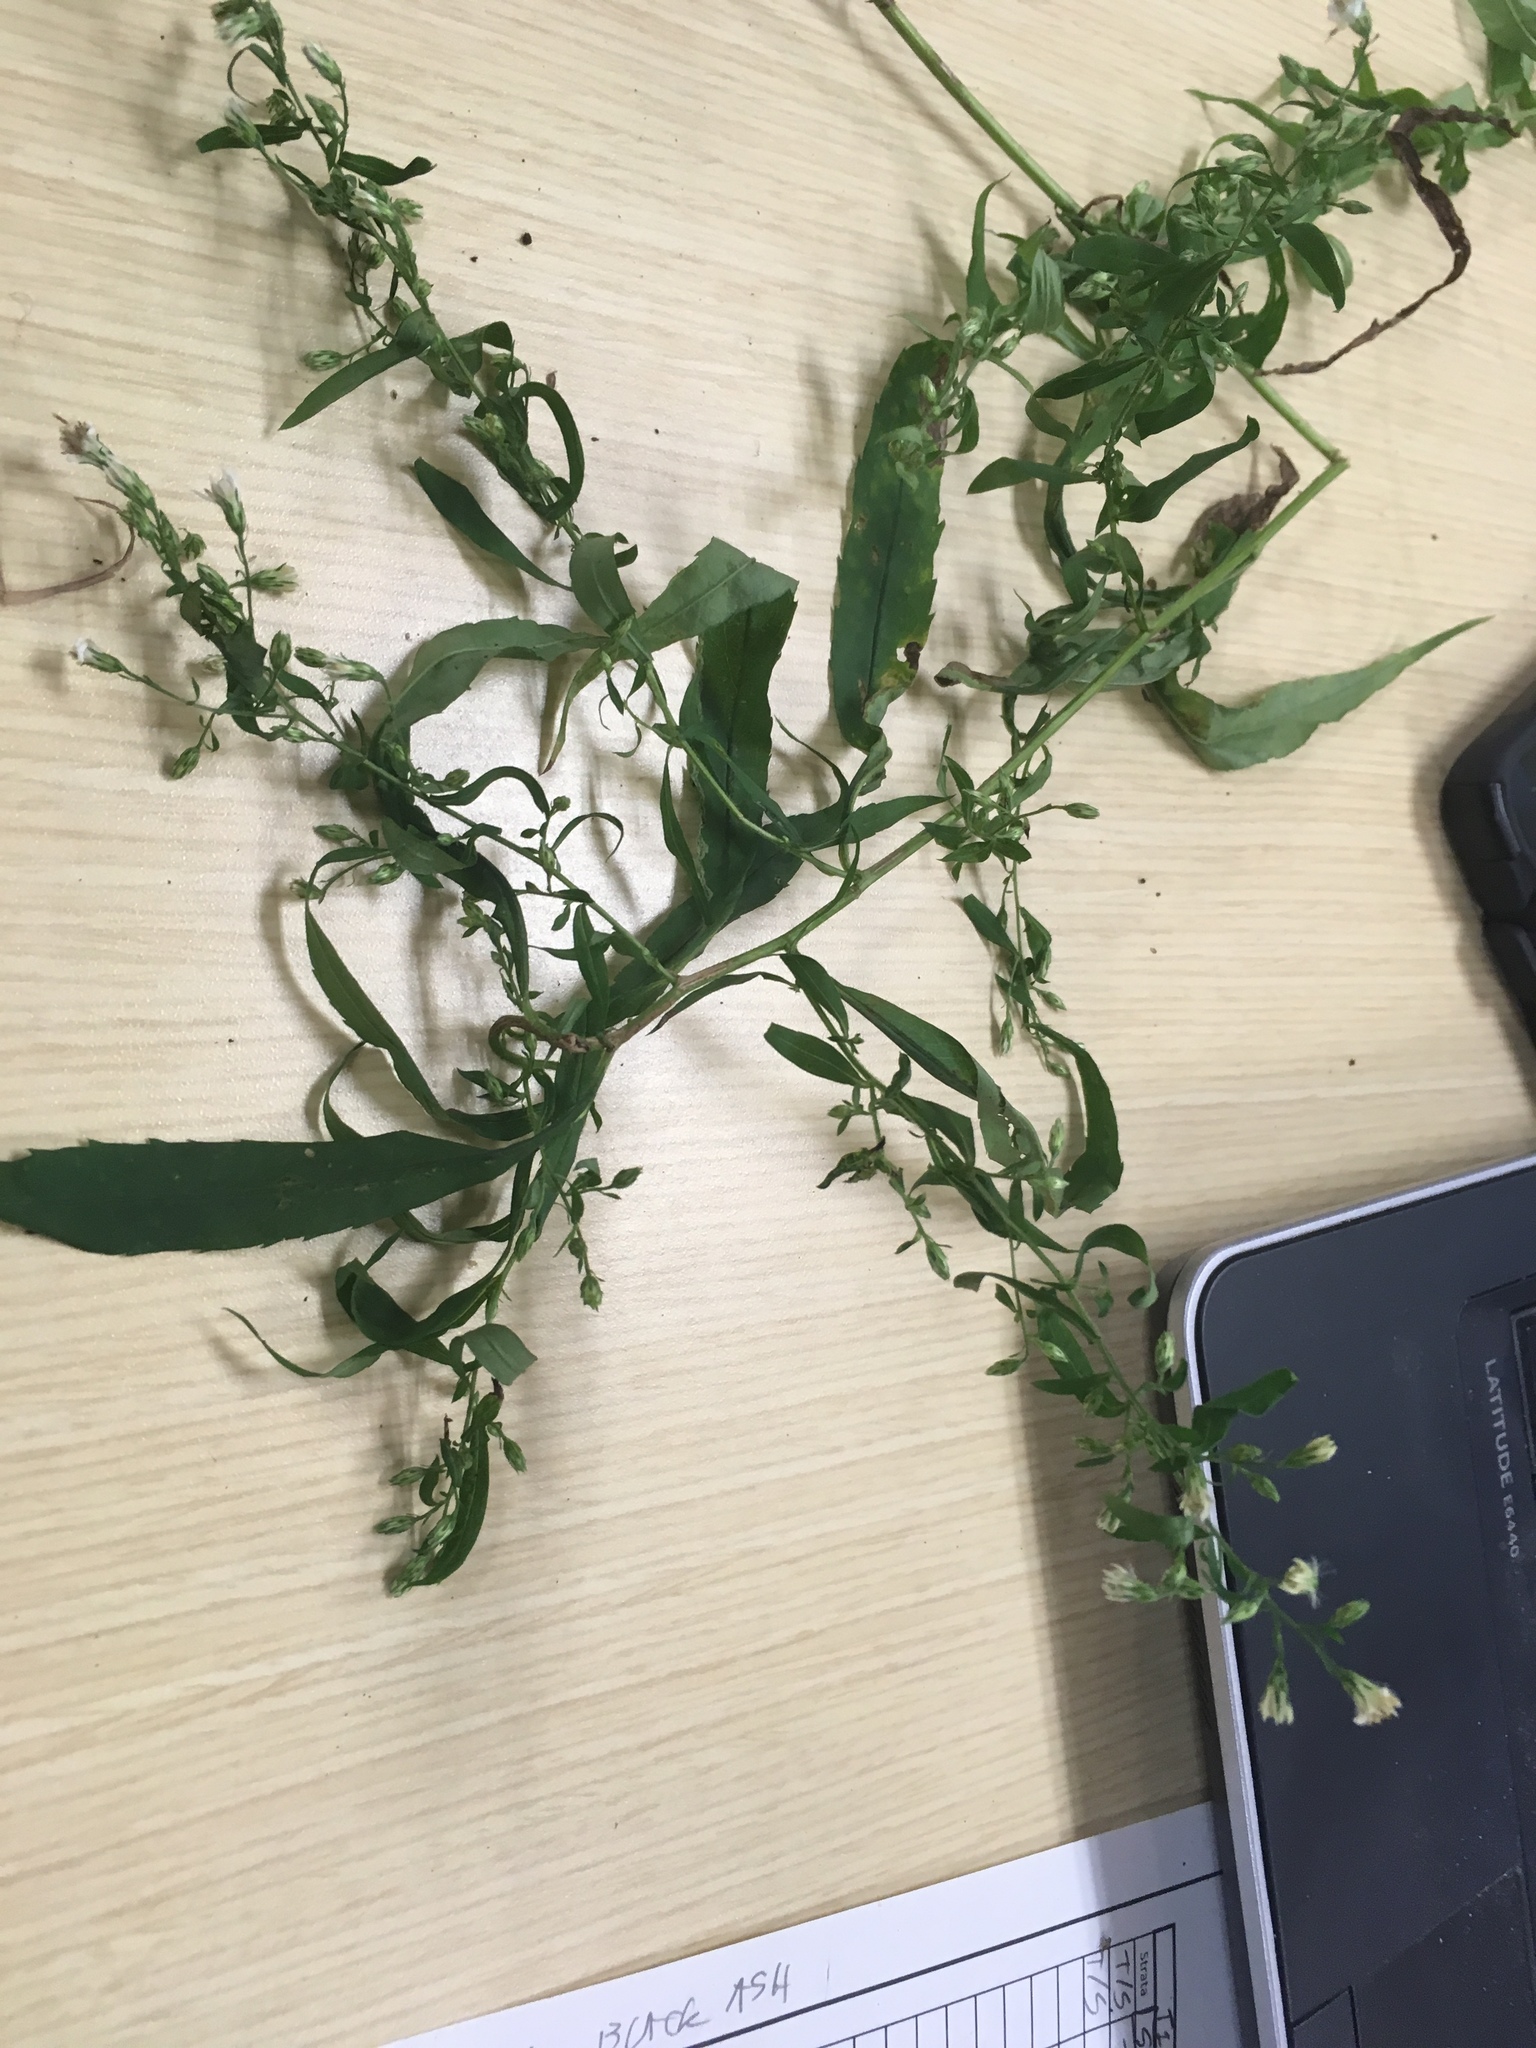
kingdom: Plantae
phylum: Tracheophyta
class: Magnoliopsida
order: Asterales
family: Asteraceae
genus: Symphyotrichum
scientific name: Symphyotrichum lateriflorum
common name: Calico aster
